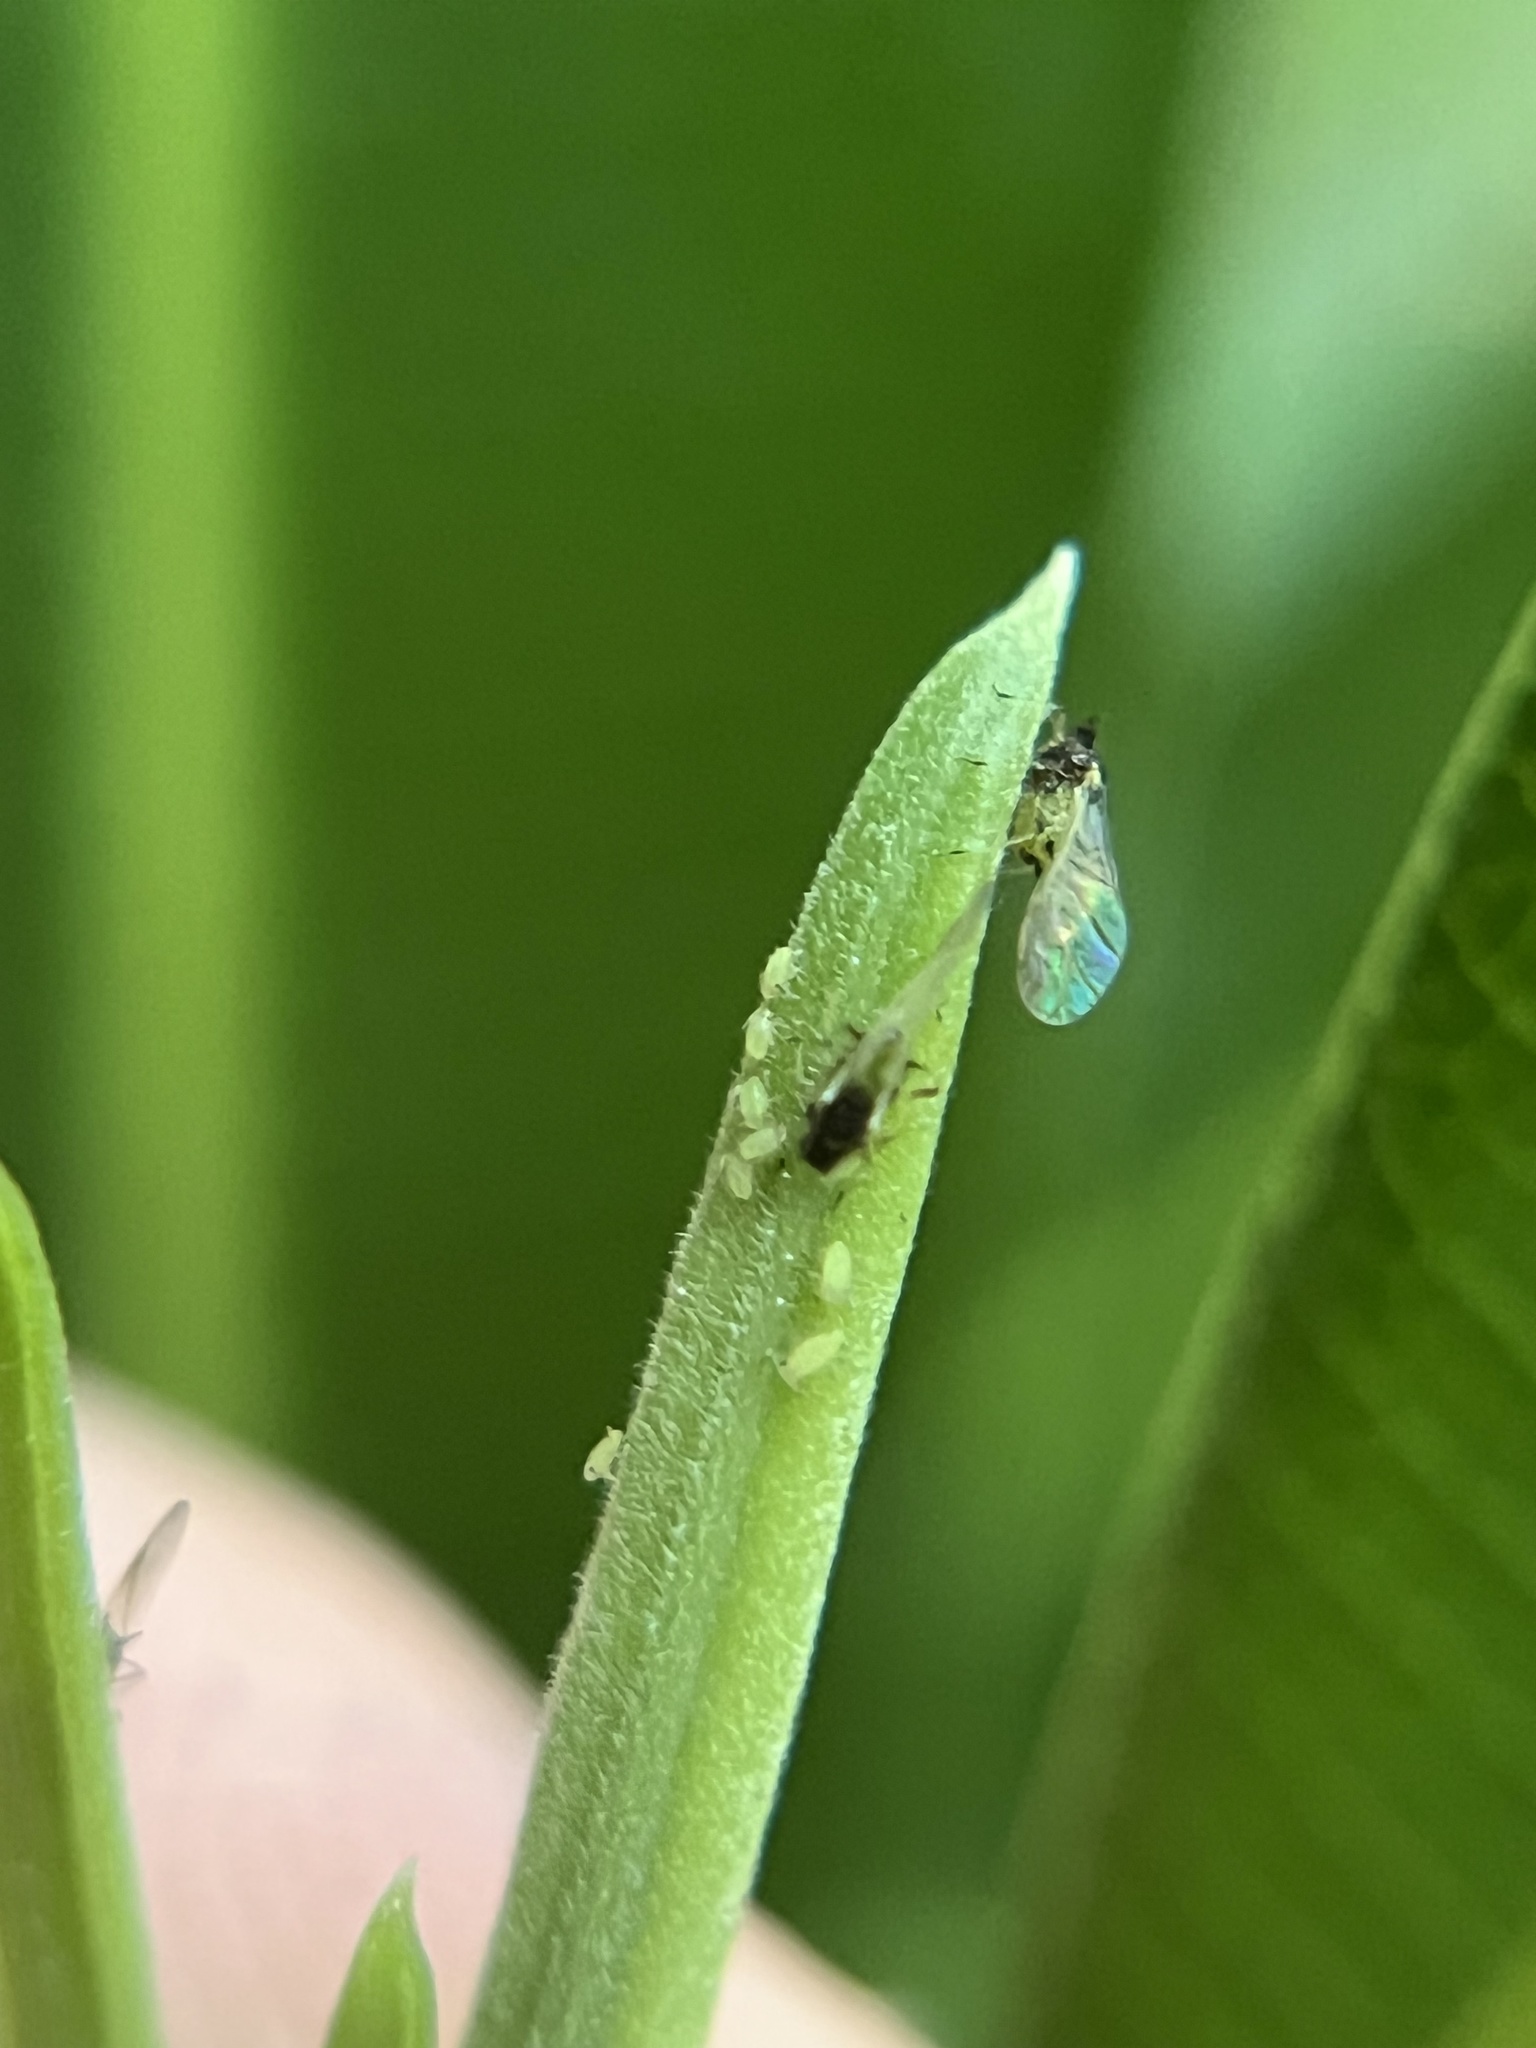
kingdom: Animalia
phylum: Arthropoda
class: Insecta
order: Hemiptera
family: Aphididae
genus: Aphis
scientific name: Aphis spiraecola
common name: Spirea aphid
